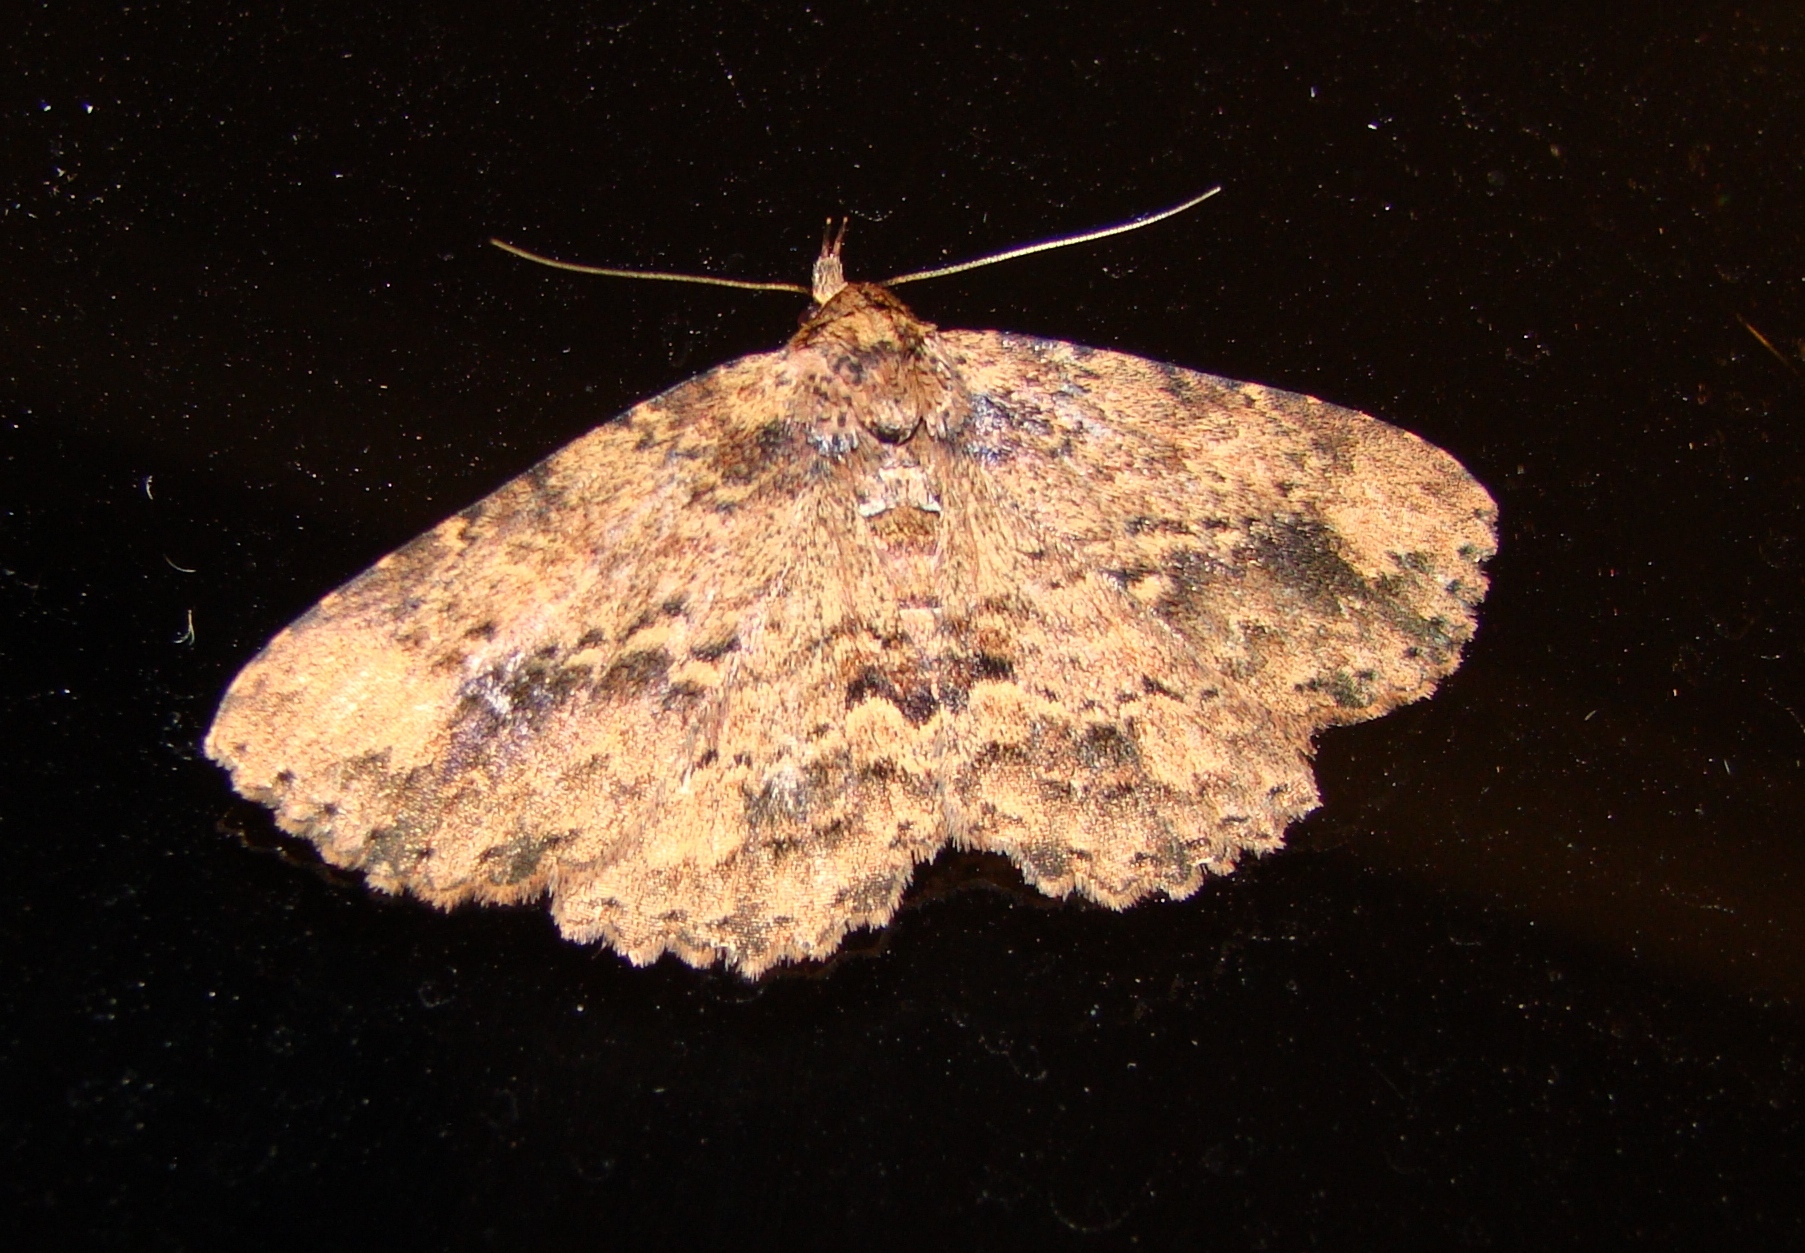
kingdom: Animalia
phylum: Arthropoda
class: Insecta
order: Lepidoptera
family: Erebidae
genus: Artigisa
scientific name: Artigisa melanephele
